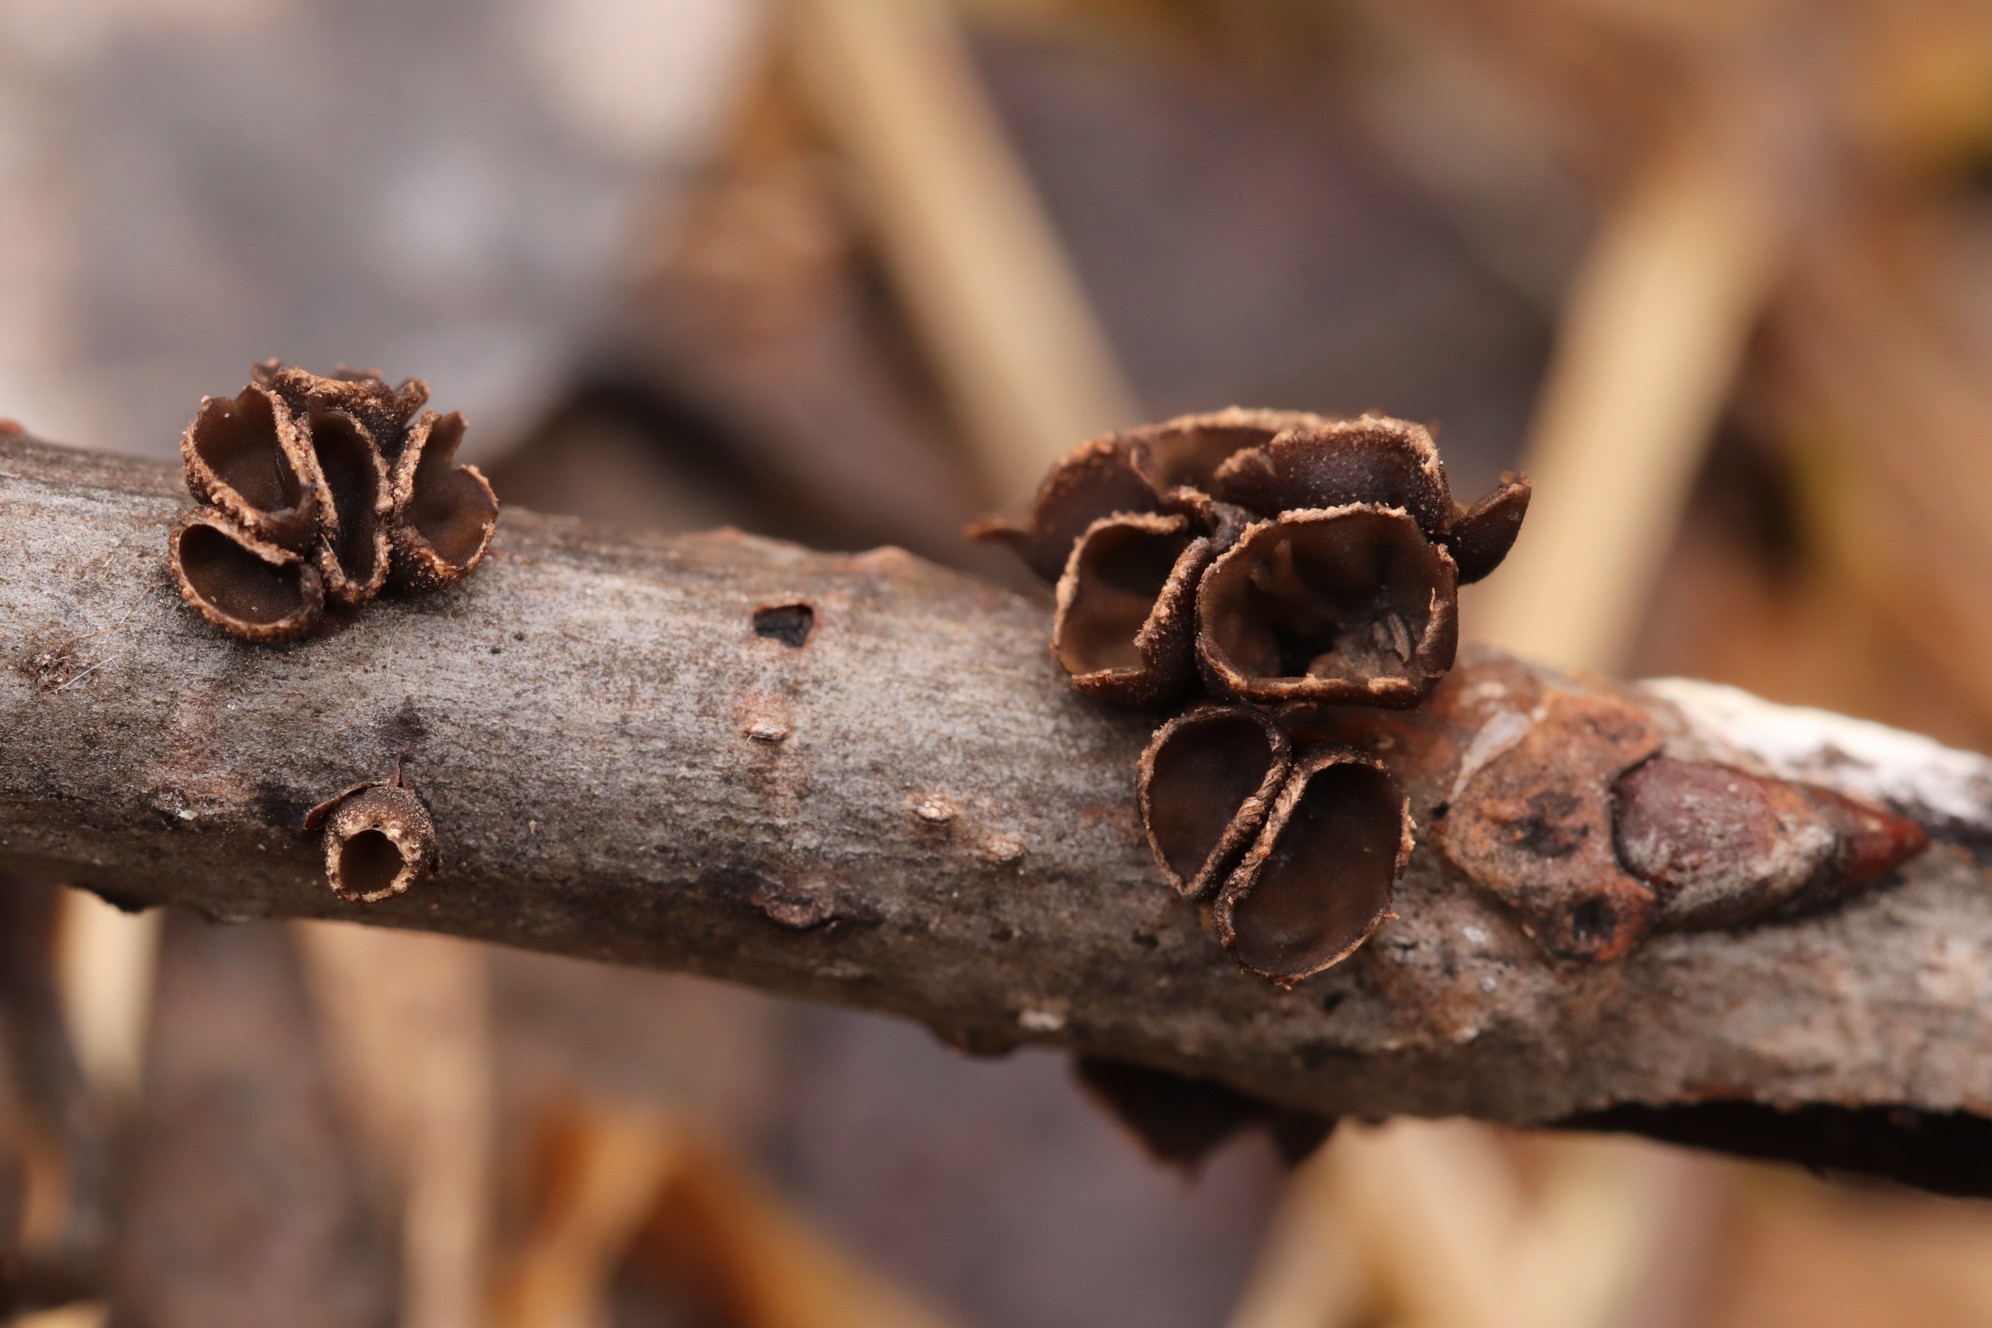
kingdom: Fungi
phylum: Ascomycota
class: Leotiomycetes
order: Helotiales
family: Sclerotiniaceae
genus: Sclerencoelia
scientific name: Sclerencoelia fascicularis
